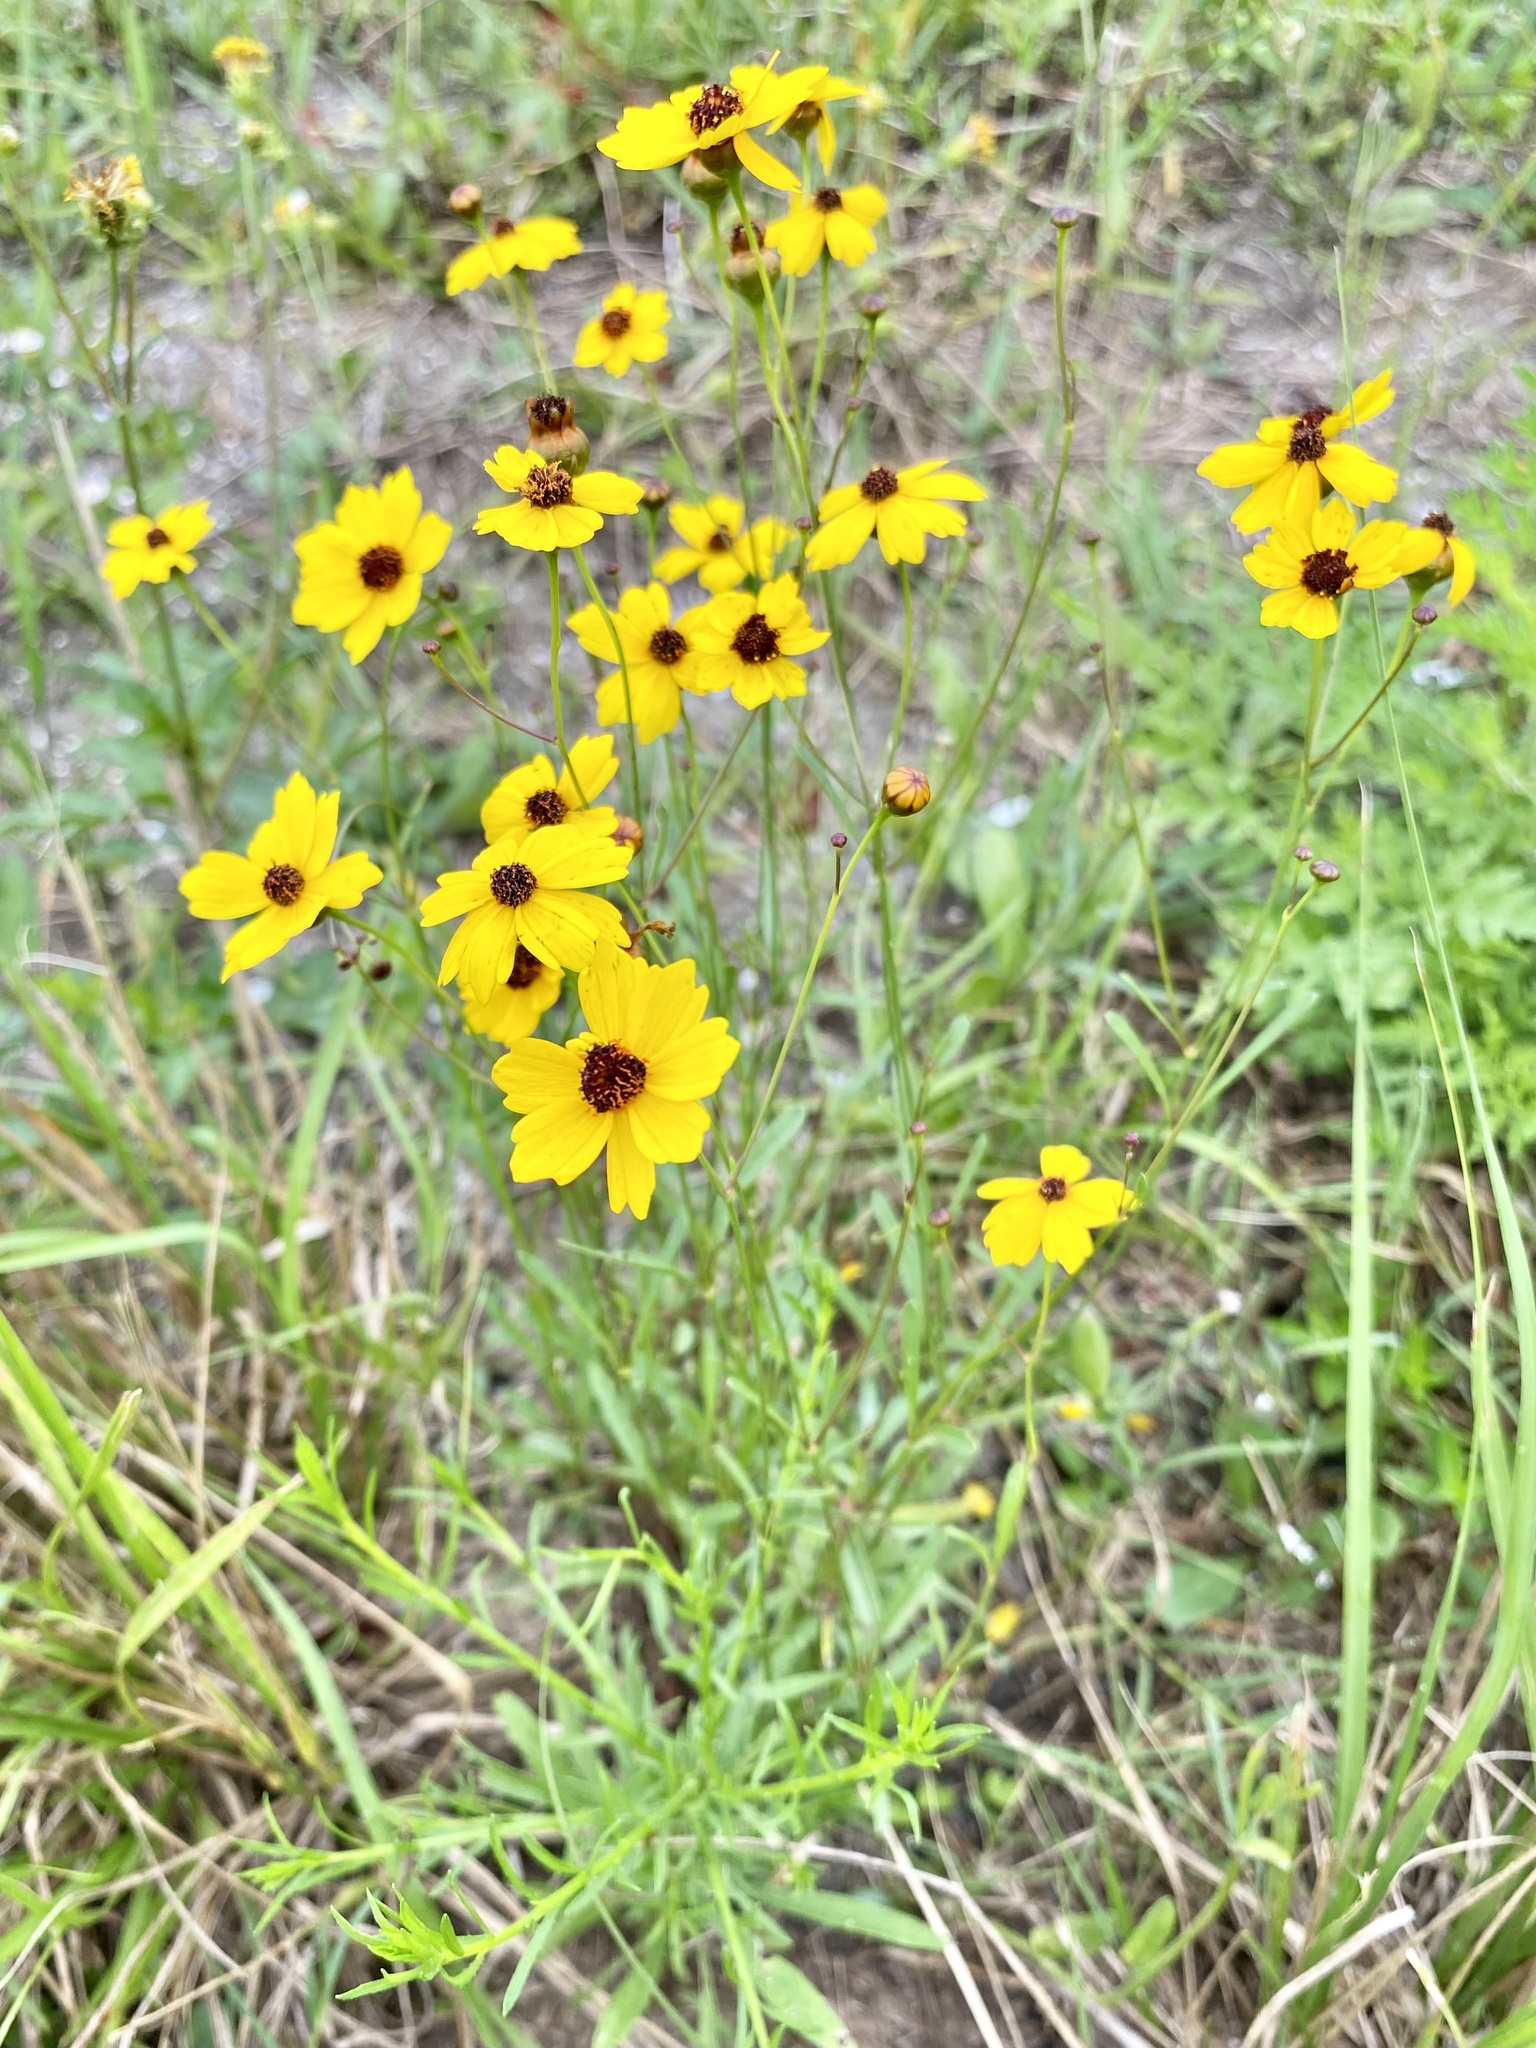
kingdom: Plantae
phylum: Tracheophyta
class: Magnoliopsida
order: Asterales
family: Asteraceae
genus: Coreopsis
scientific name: Coreopsis leavenworthii
